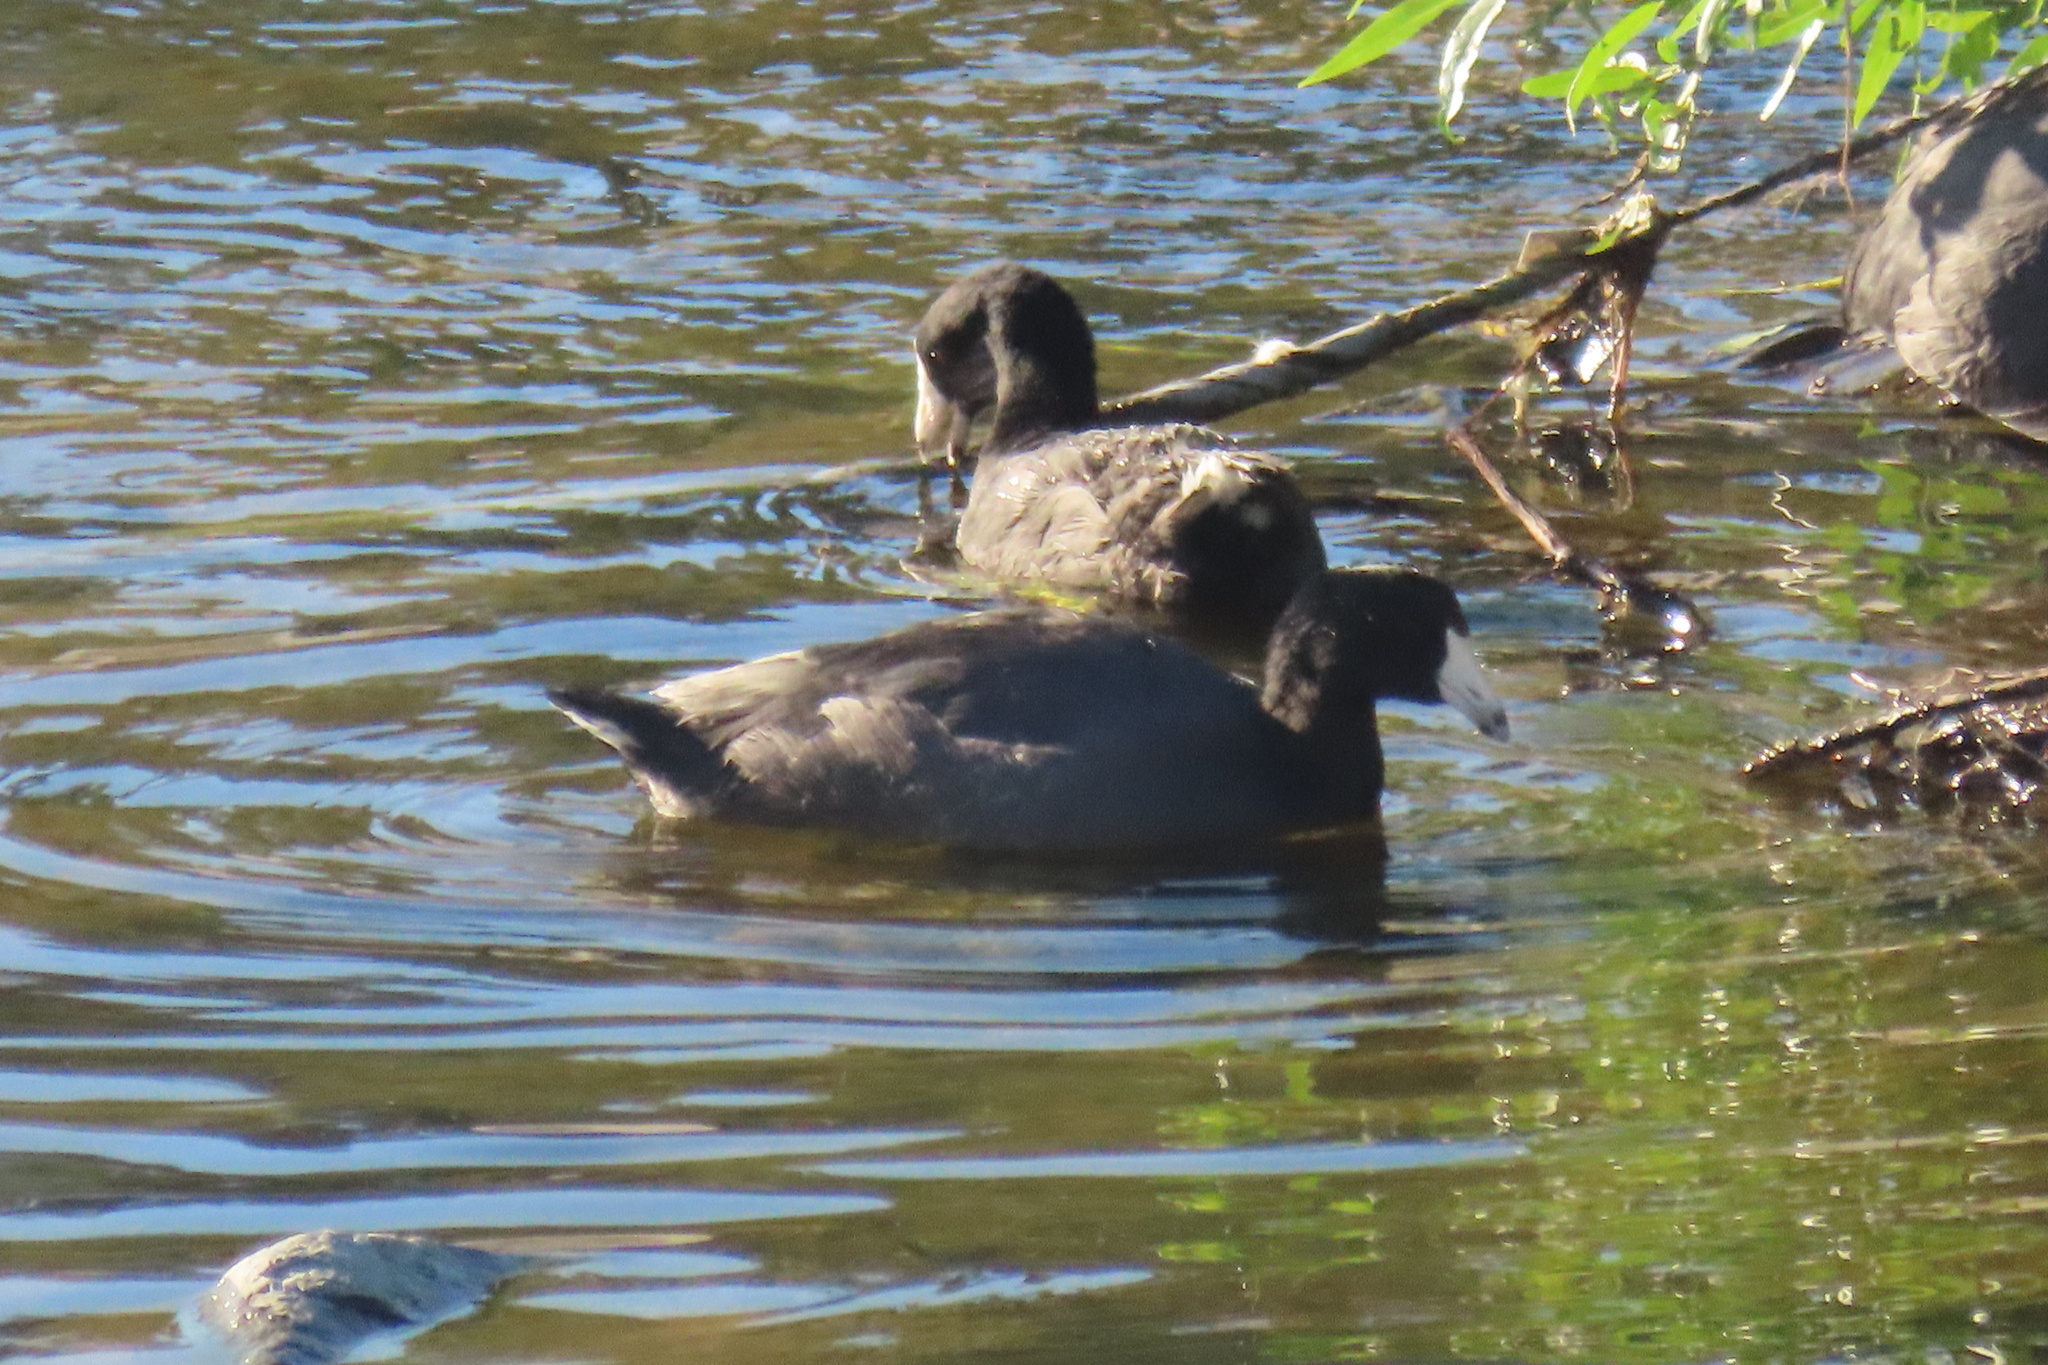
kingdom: Animalia
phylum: Chordata
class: Aves
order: Gruiformes
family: Rallidae
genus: Fulica
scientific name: Fulica americana
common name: American coot
